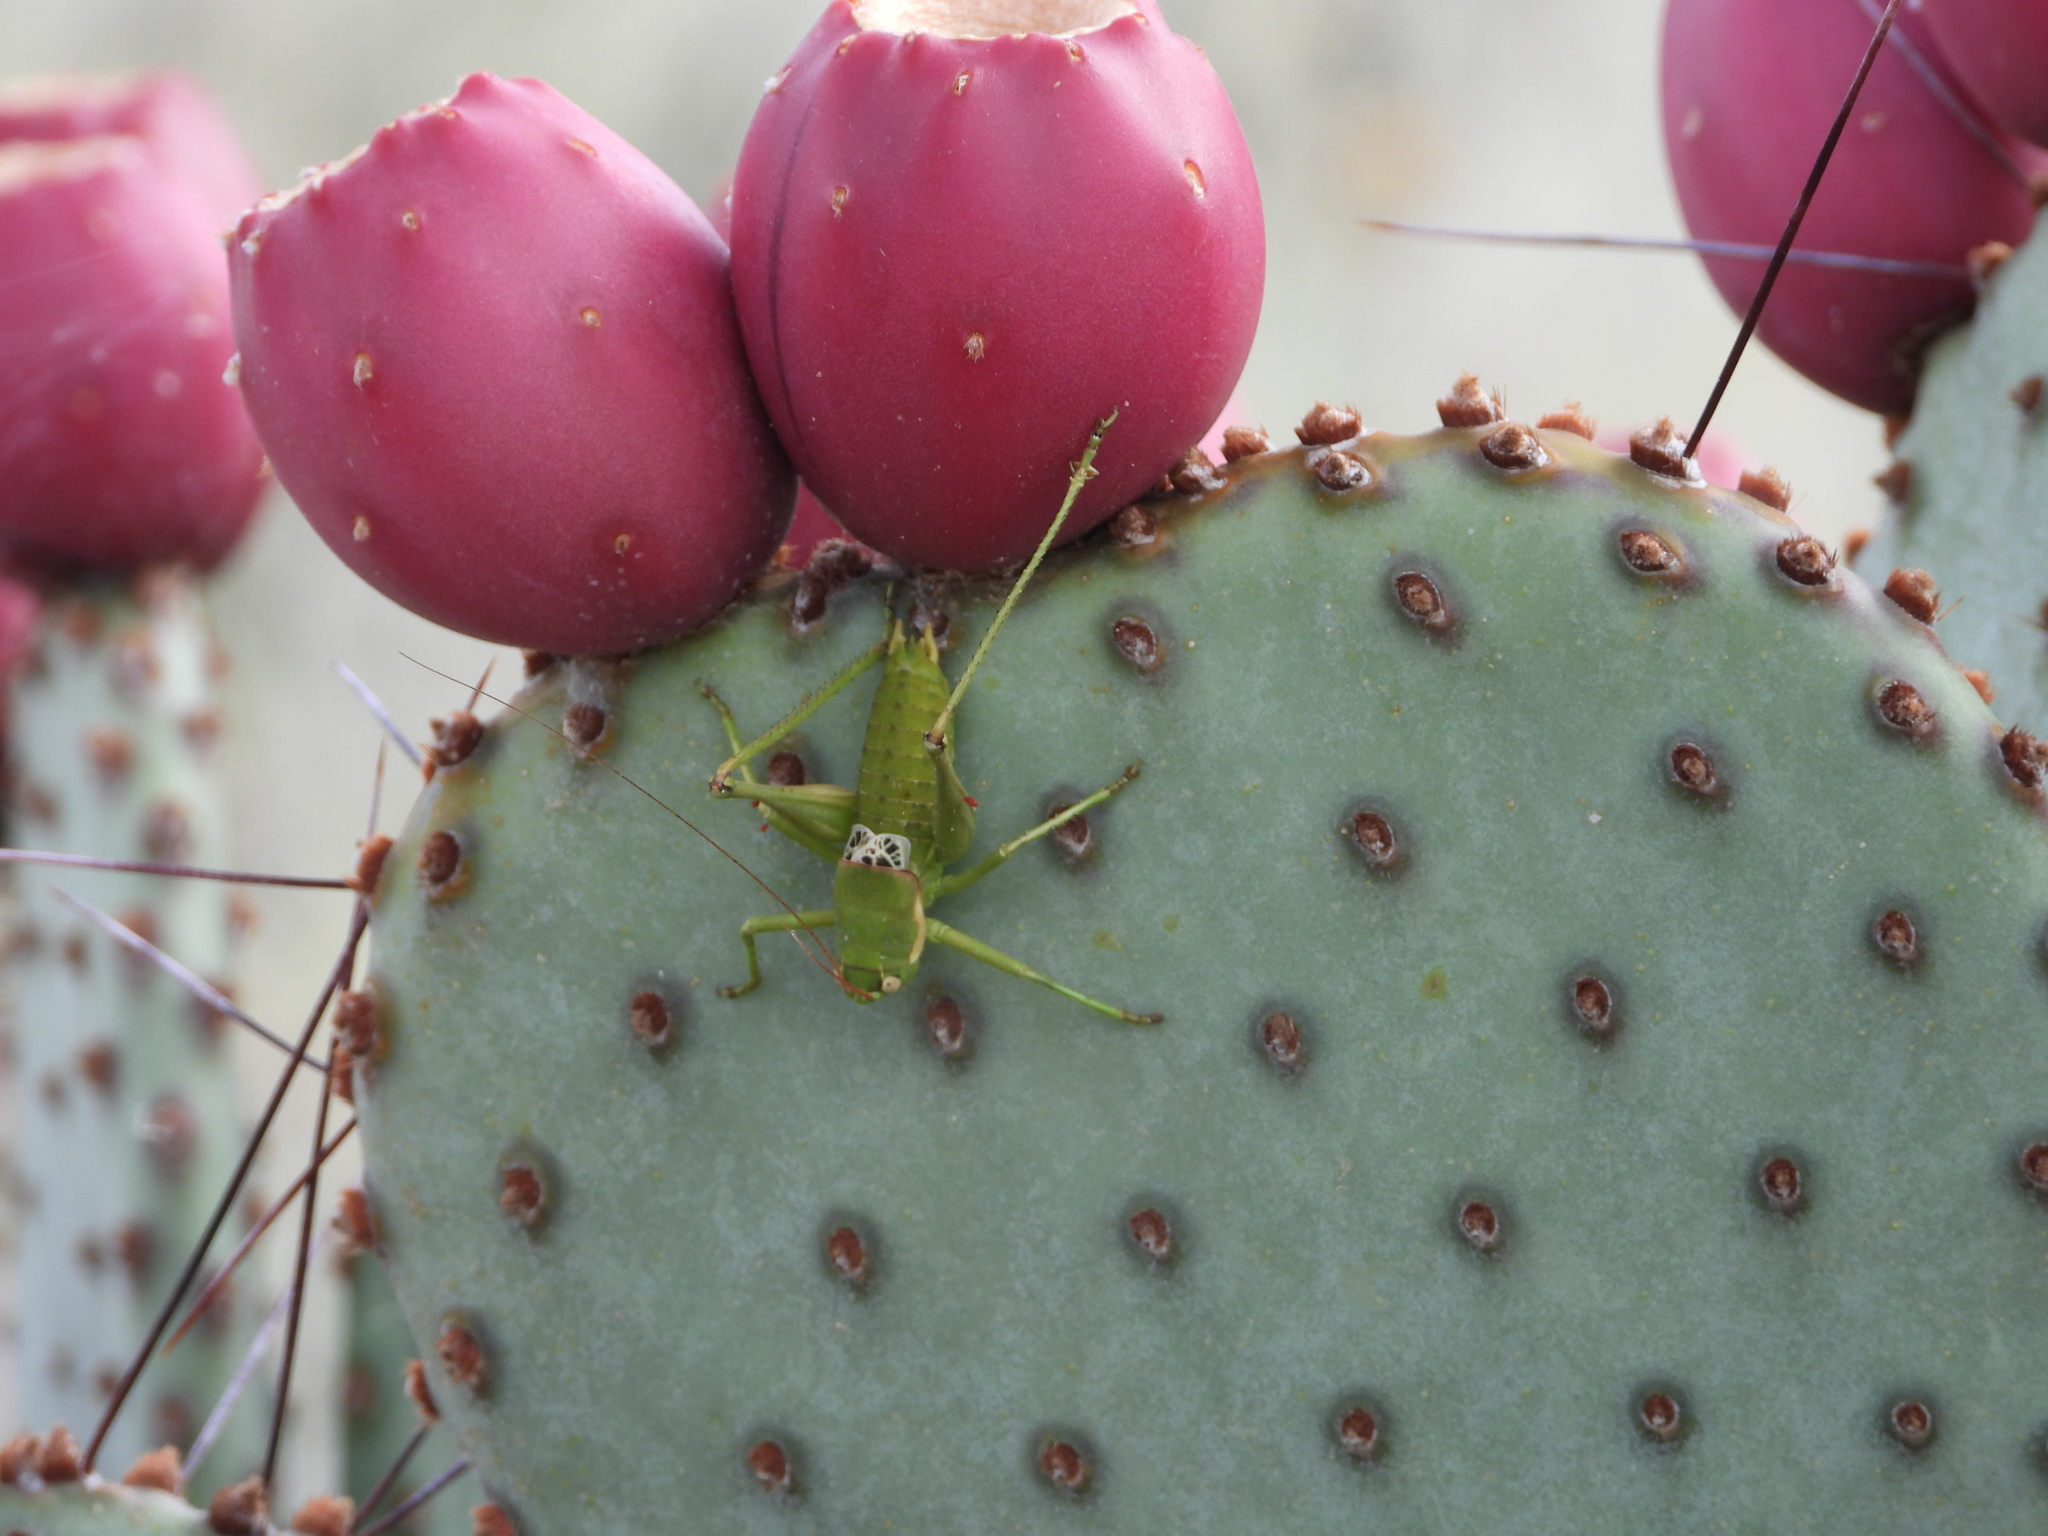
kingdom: Animalia
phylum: Arthropoda
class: Insecta
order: Orthoptera
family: Tettigoniidae
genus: Eremopedes
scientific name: Eremopedes covilleae
